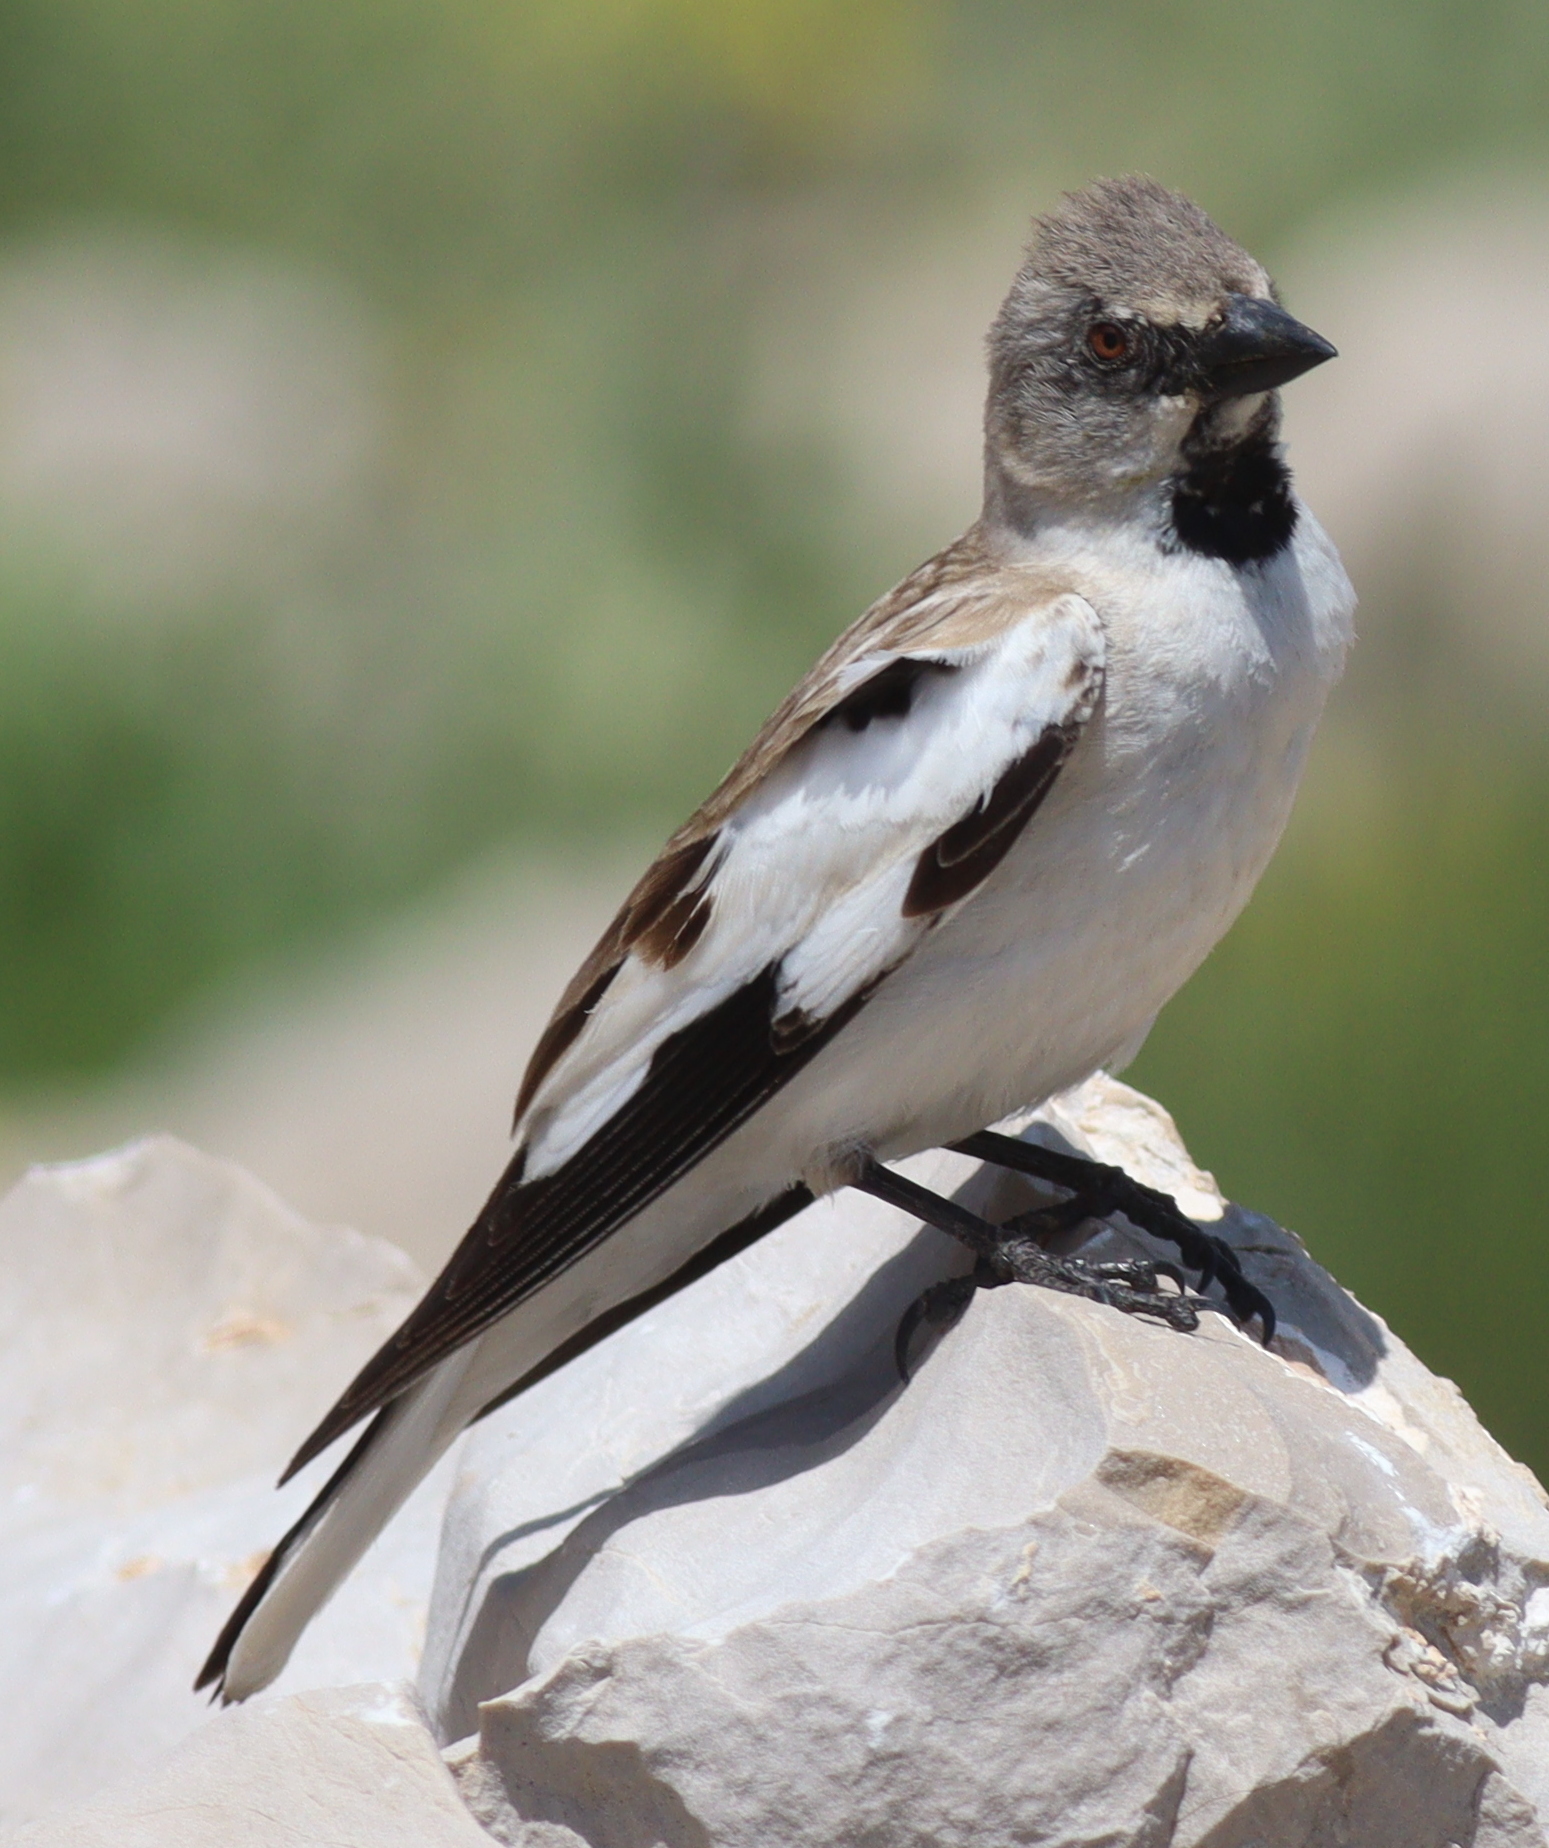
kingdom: Animalia
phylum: Chordata
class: Aves
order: Passeriformes
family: Passeridae
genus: Montifringilla
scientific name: Montifringilla nivalis
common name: White-winged snowfinch
